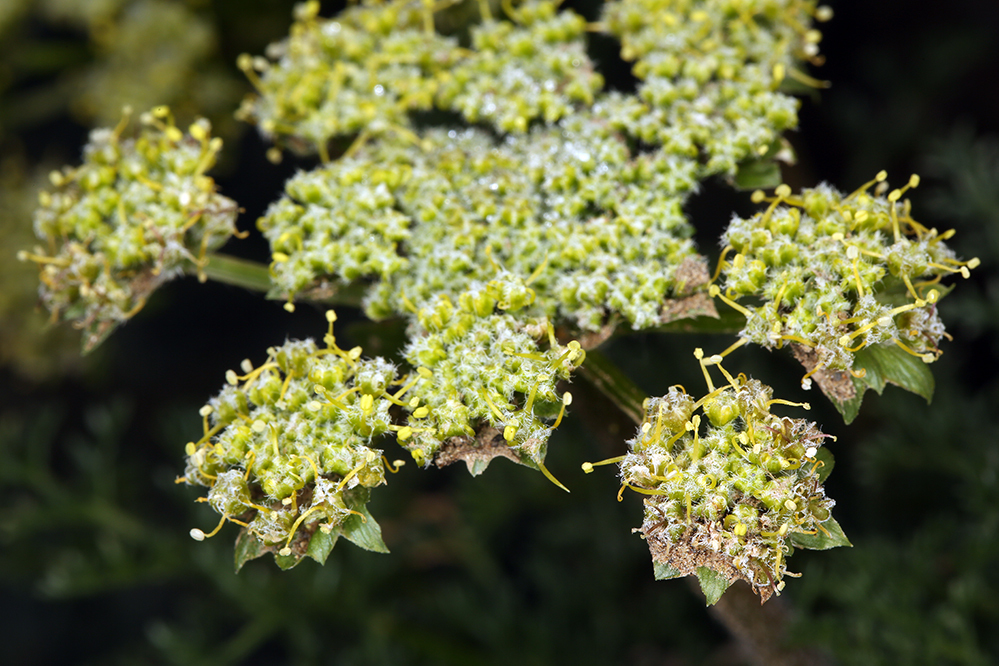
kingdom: Plantae
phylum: Tracheophyta
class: Magnoliopsida
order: Apiales
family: Apiaceae
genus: Lomatium
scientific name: Lomatium dasycarpum
